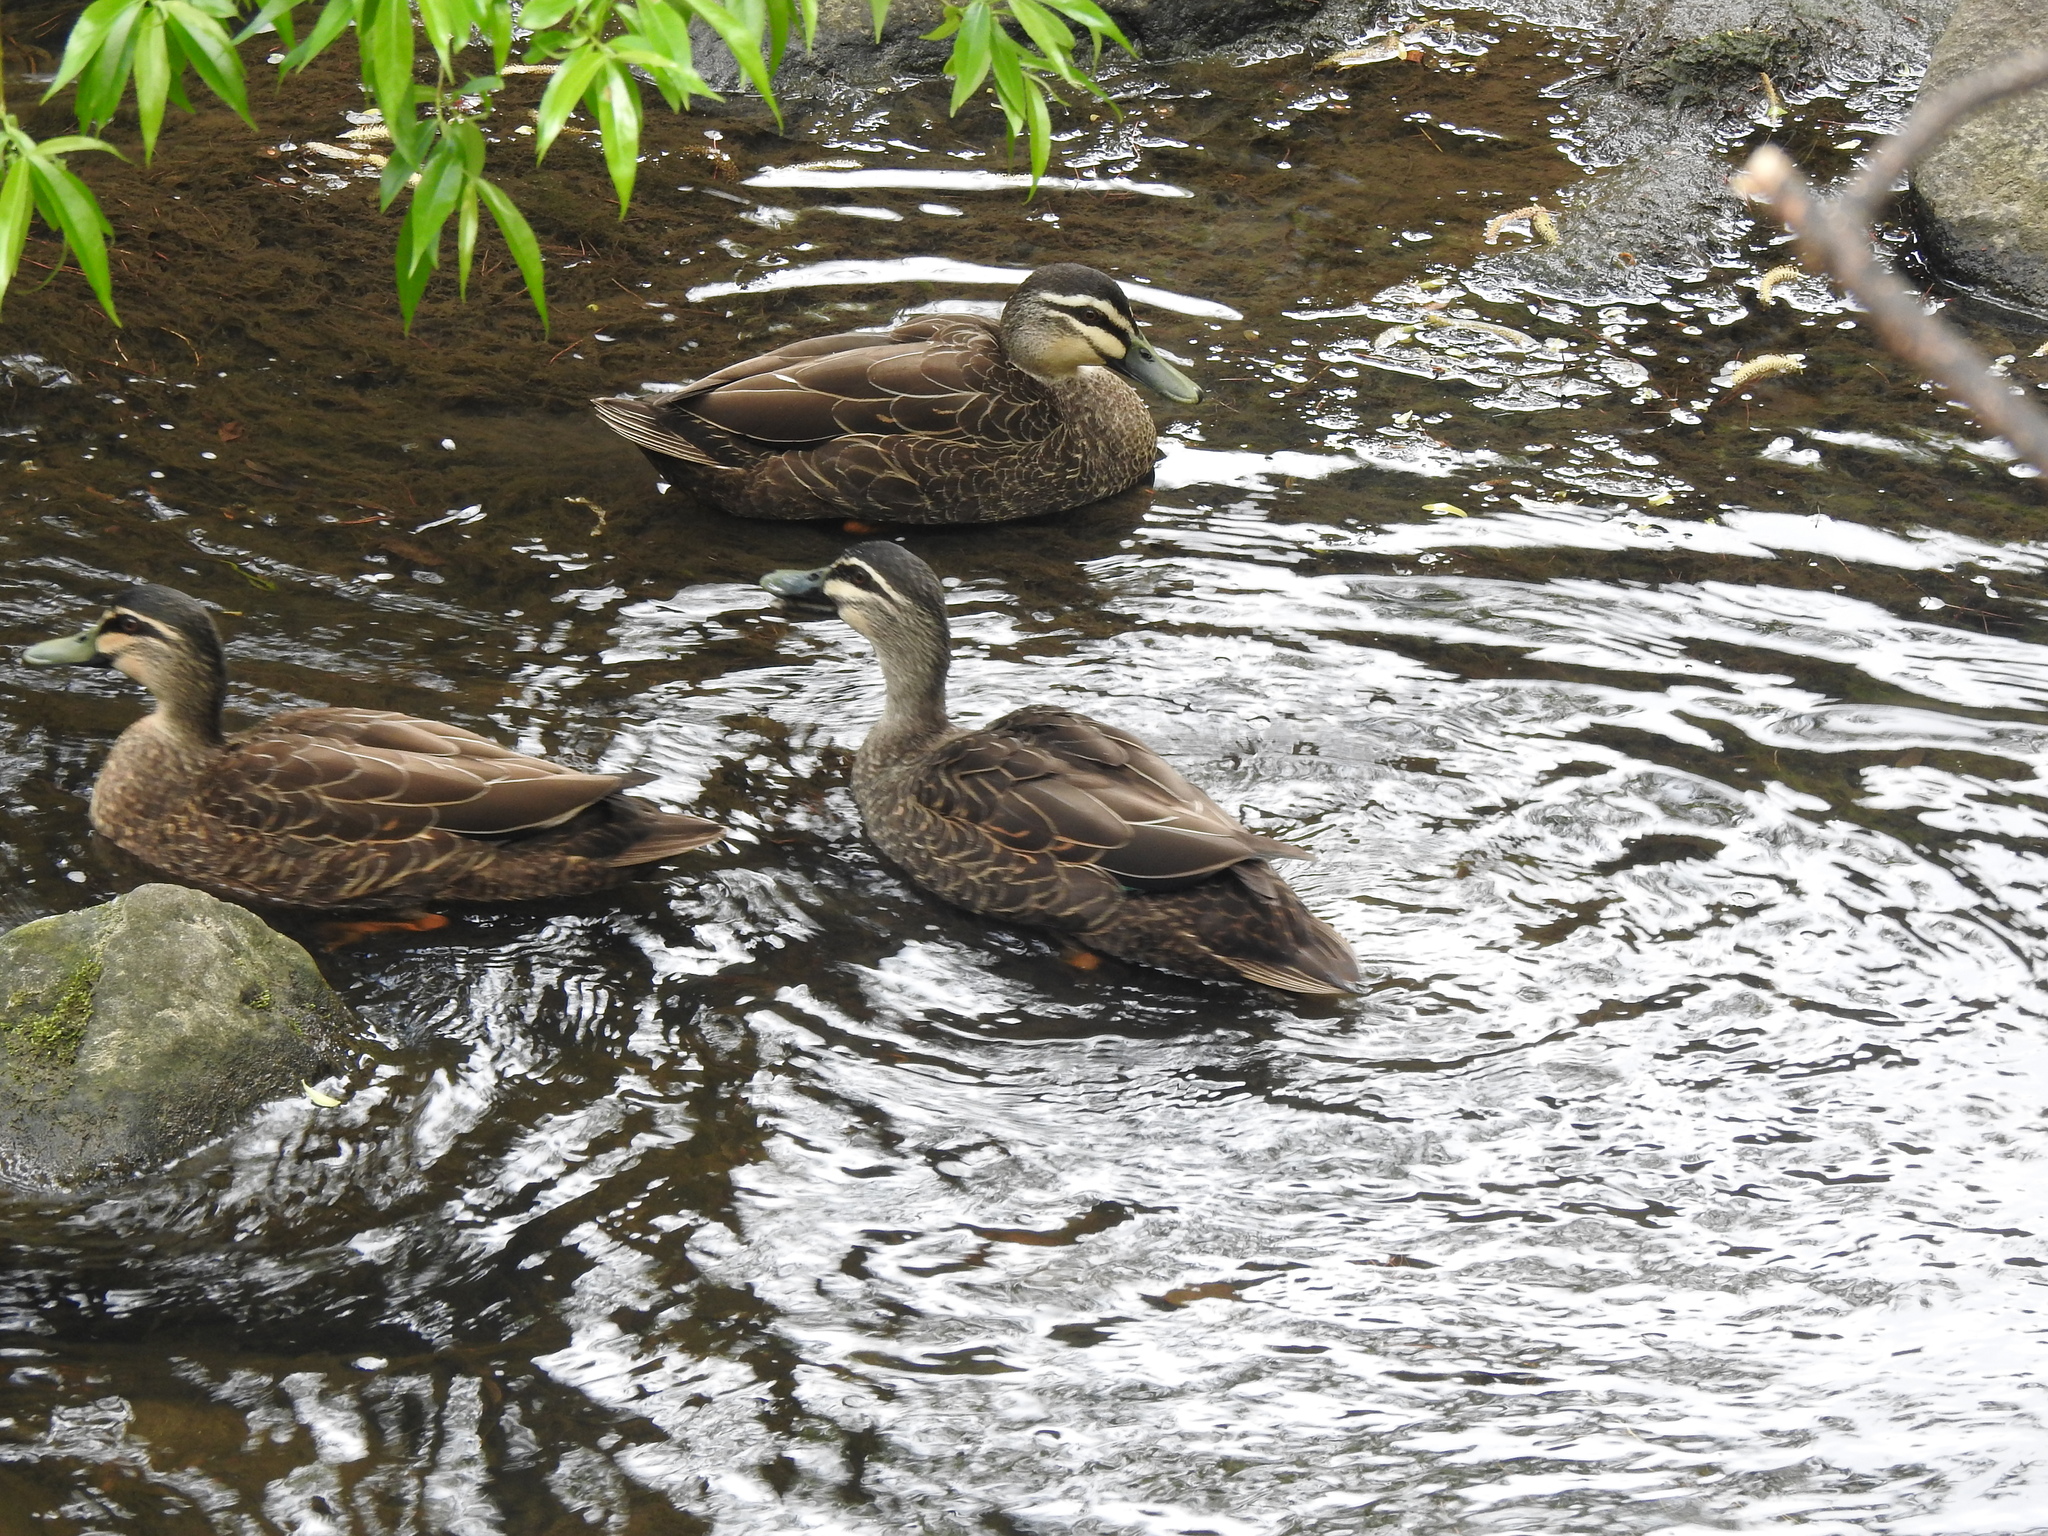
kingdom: Animalia
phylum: Chordata
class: Aves
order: Anseriformes
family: Anatidae
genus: Anas
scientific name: Anas
